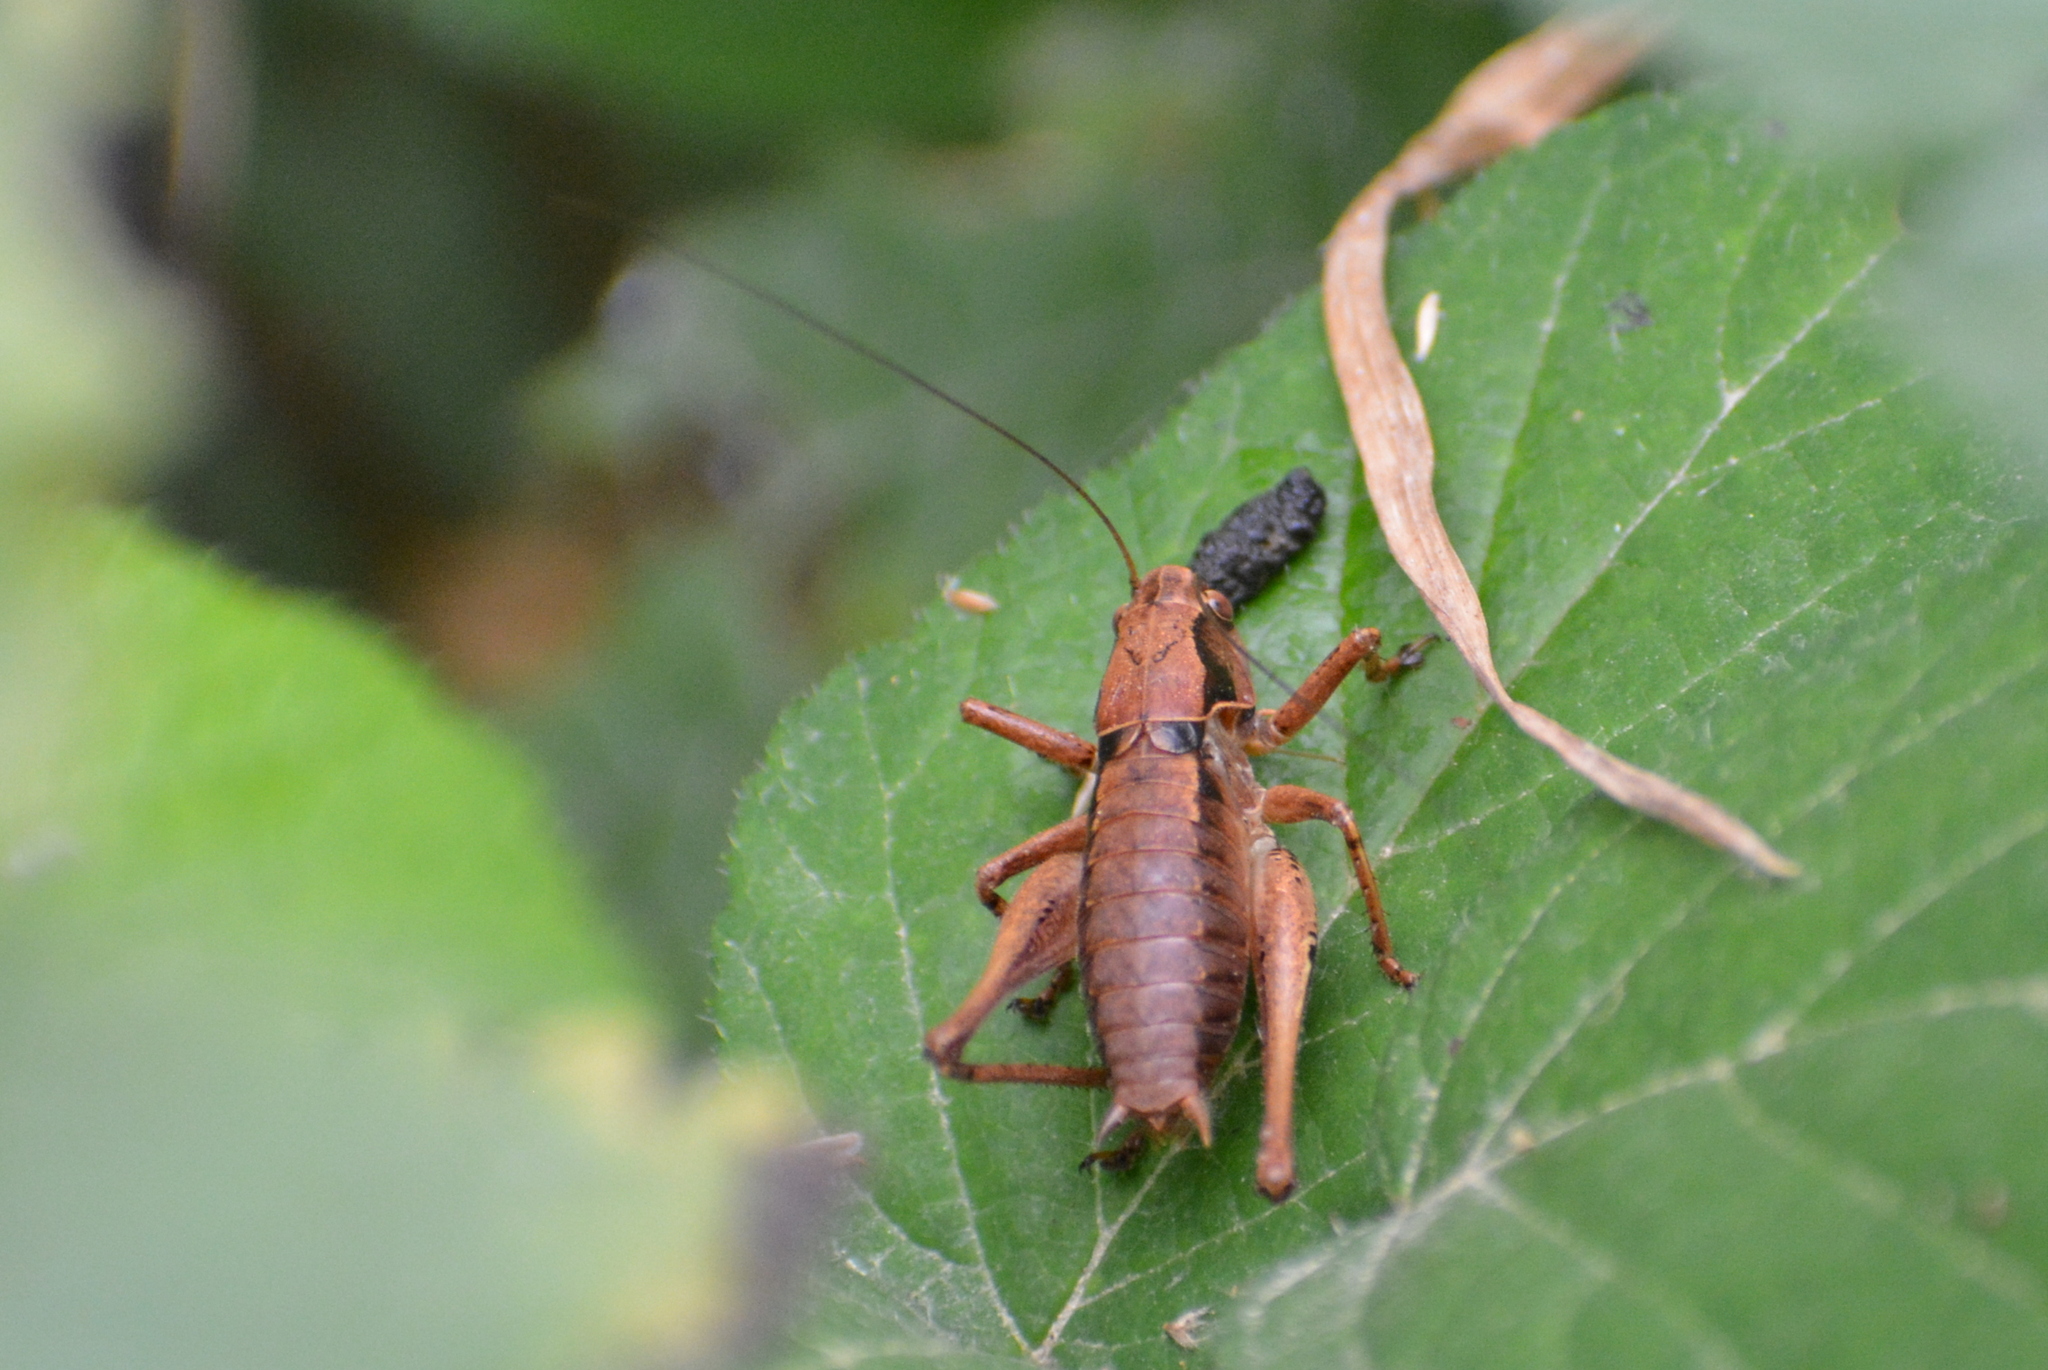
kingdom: Animalia
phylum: Arthropoda
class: Insecta
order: Orthoptera
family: Tettigoniidae
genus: Pholidoptera
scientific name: Pholidoptera griseoaptera
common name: Dark bush-cricket
